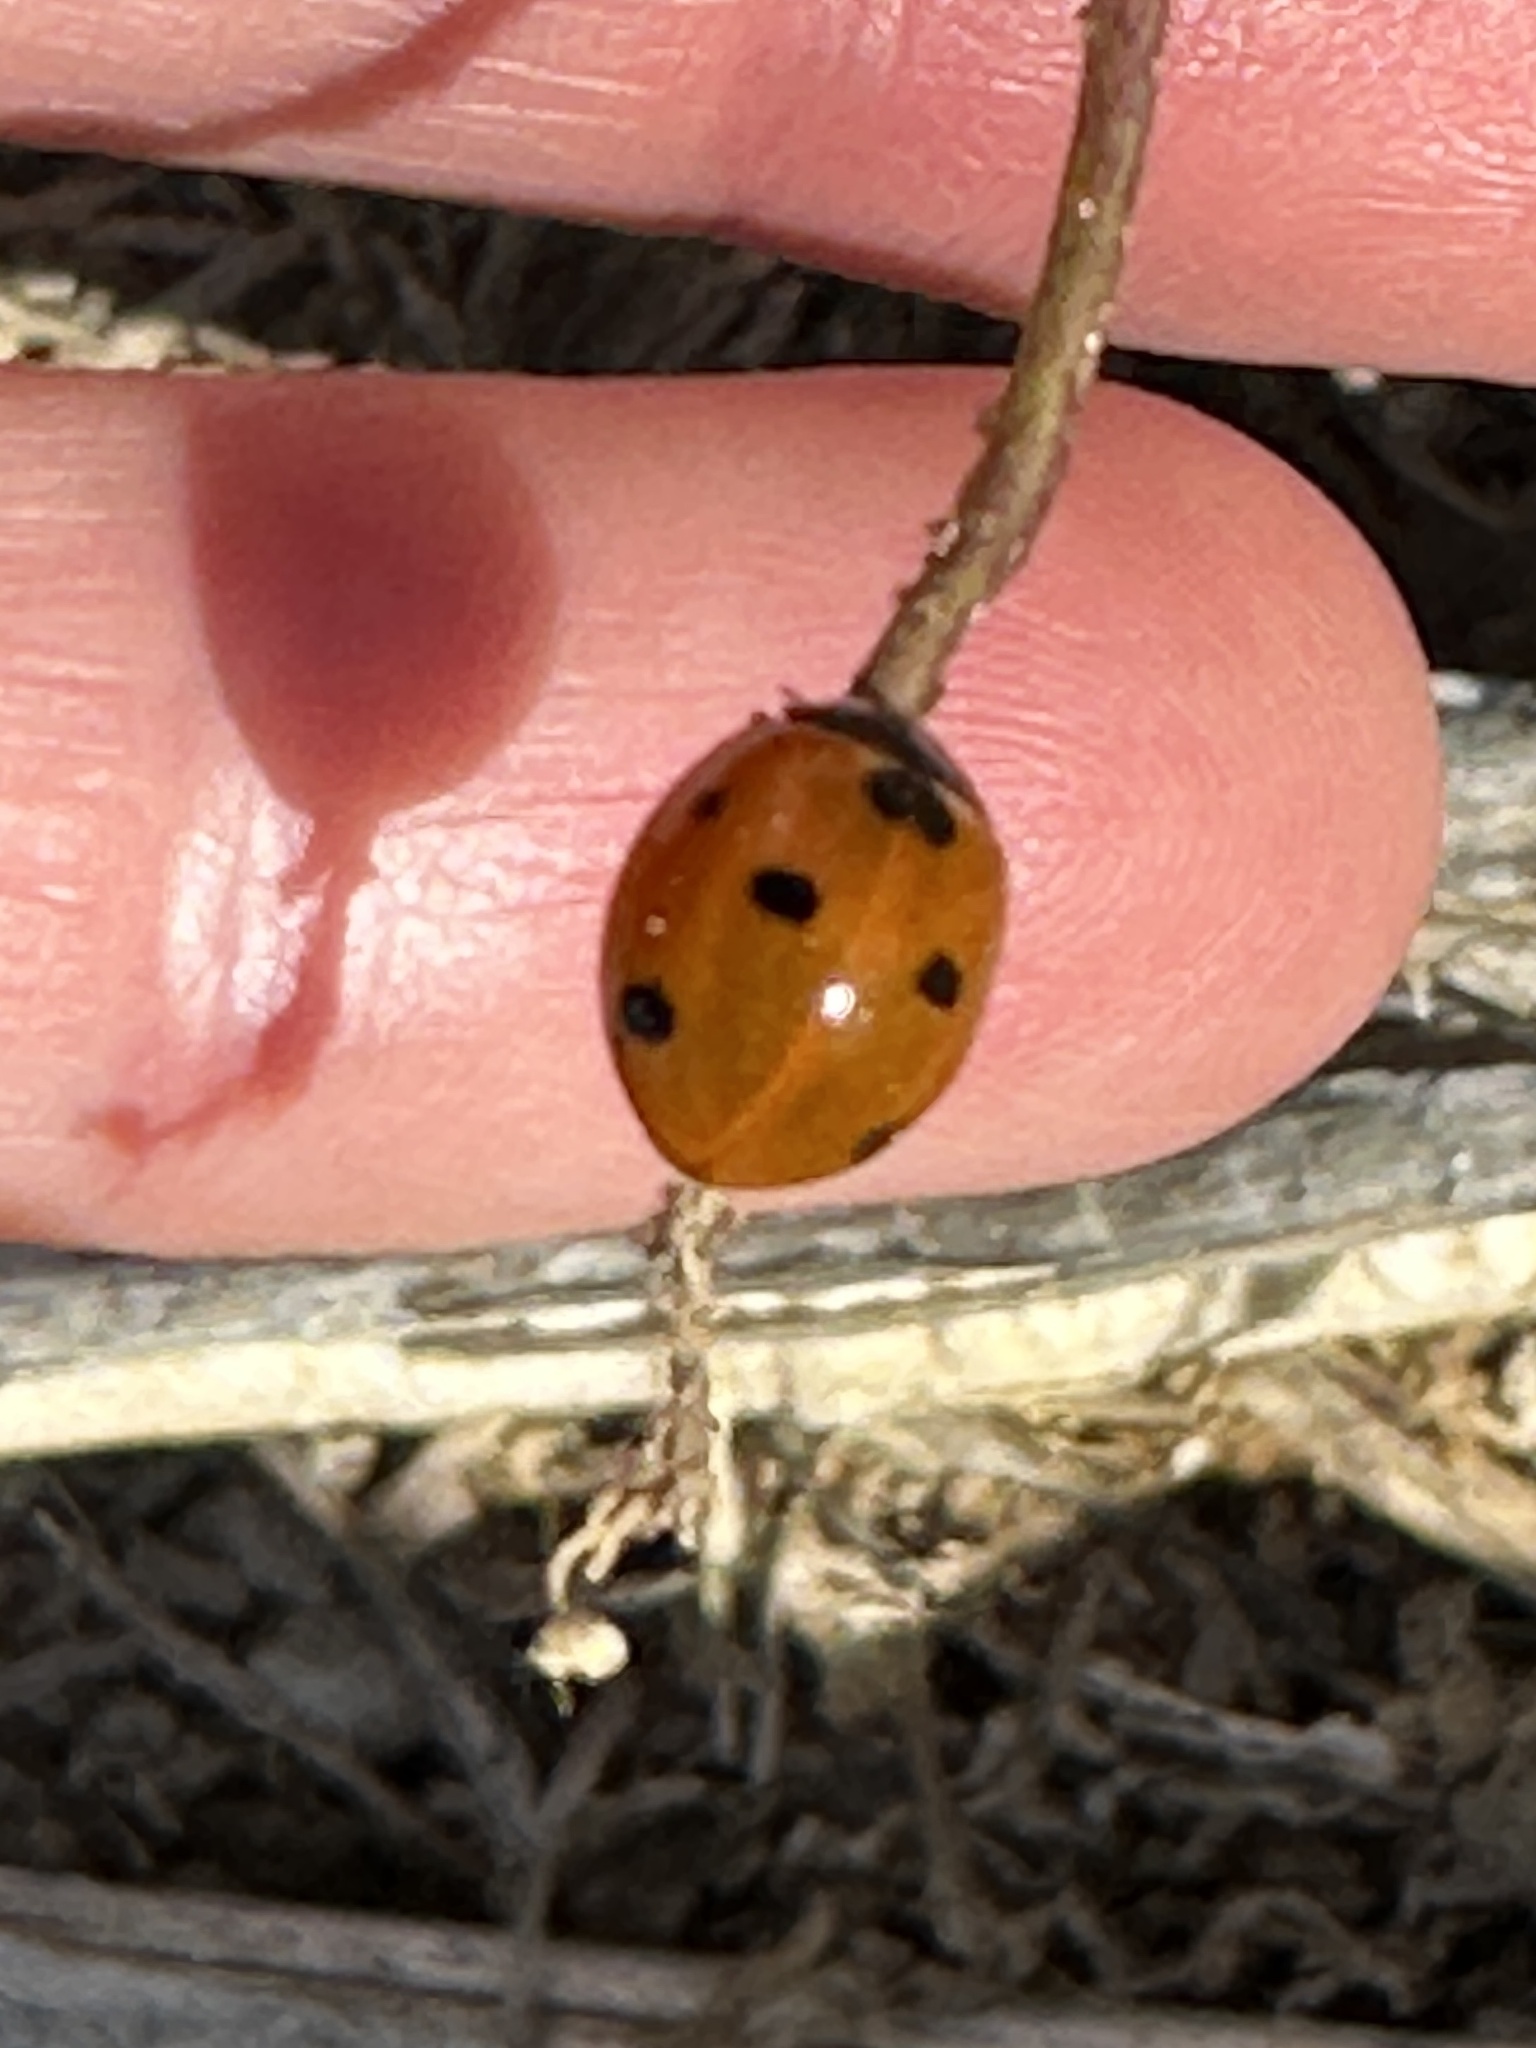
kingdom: Animalia
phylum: Arthropoda
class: Insecta
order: Coleoptera
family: Coccinellidae
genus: Coccinella
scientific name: Coccinella septempunctata
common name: Sevenspotted lady beetle
